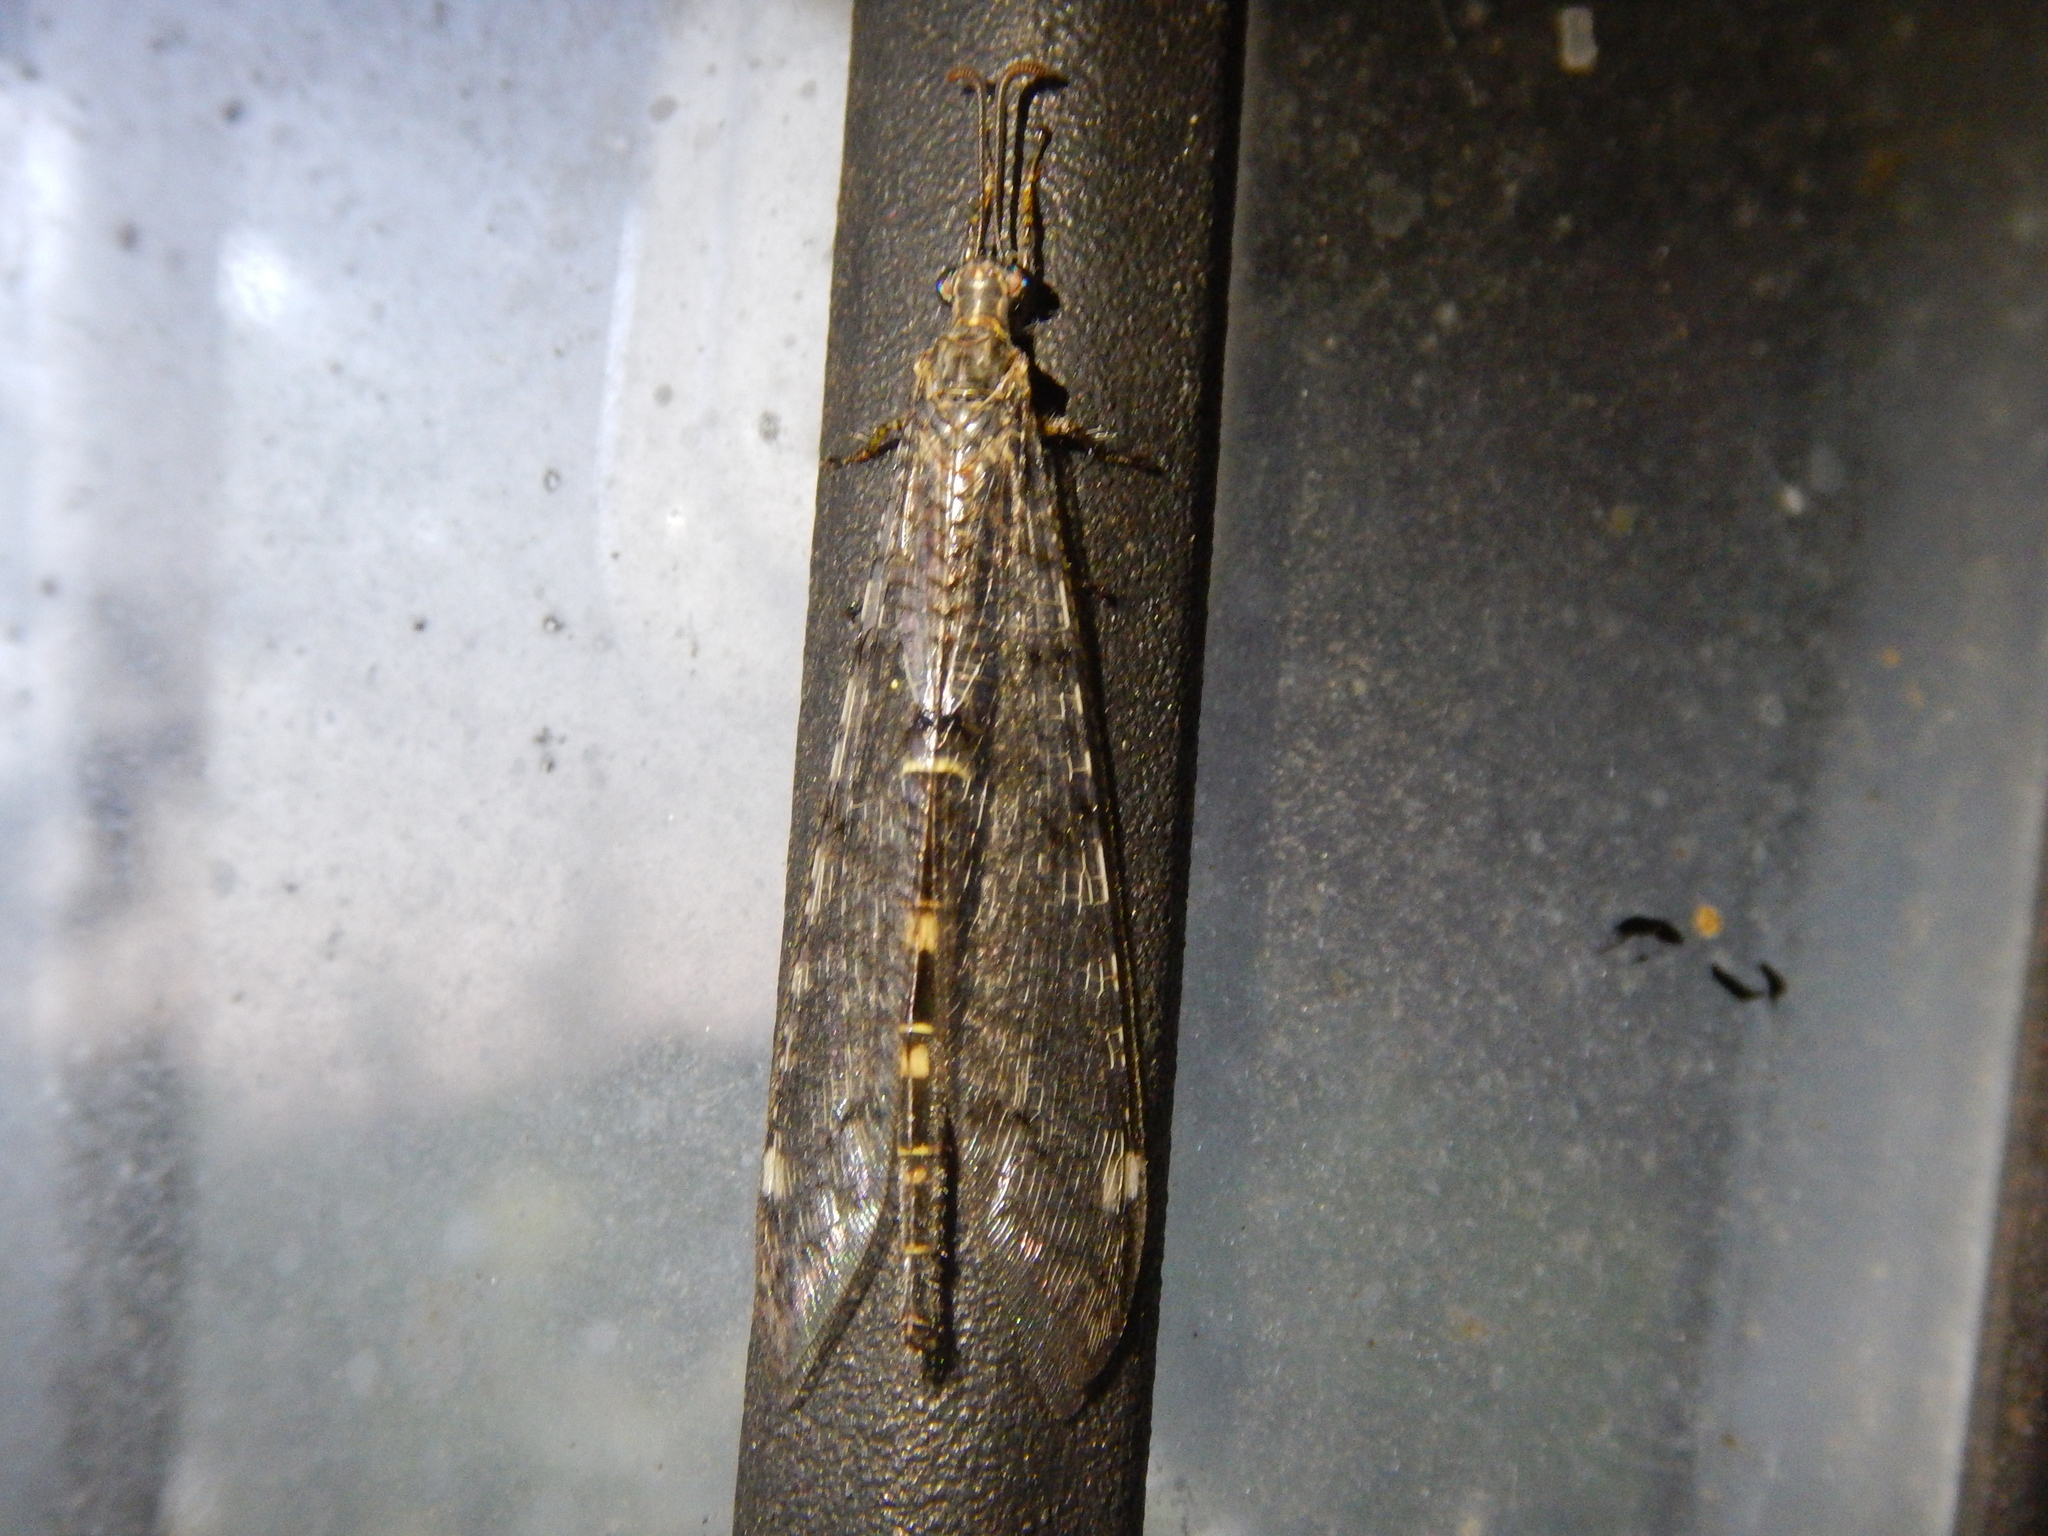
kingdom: Animalia
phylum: Arthropoda
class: Insecta
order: Neuroptera
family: Myrmeleontidae
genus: Distoleon
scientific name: Distoleon tetragrammicus
